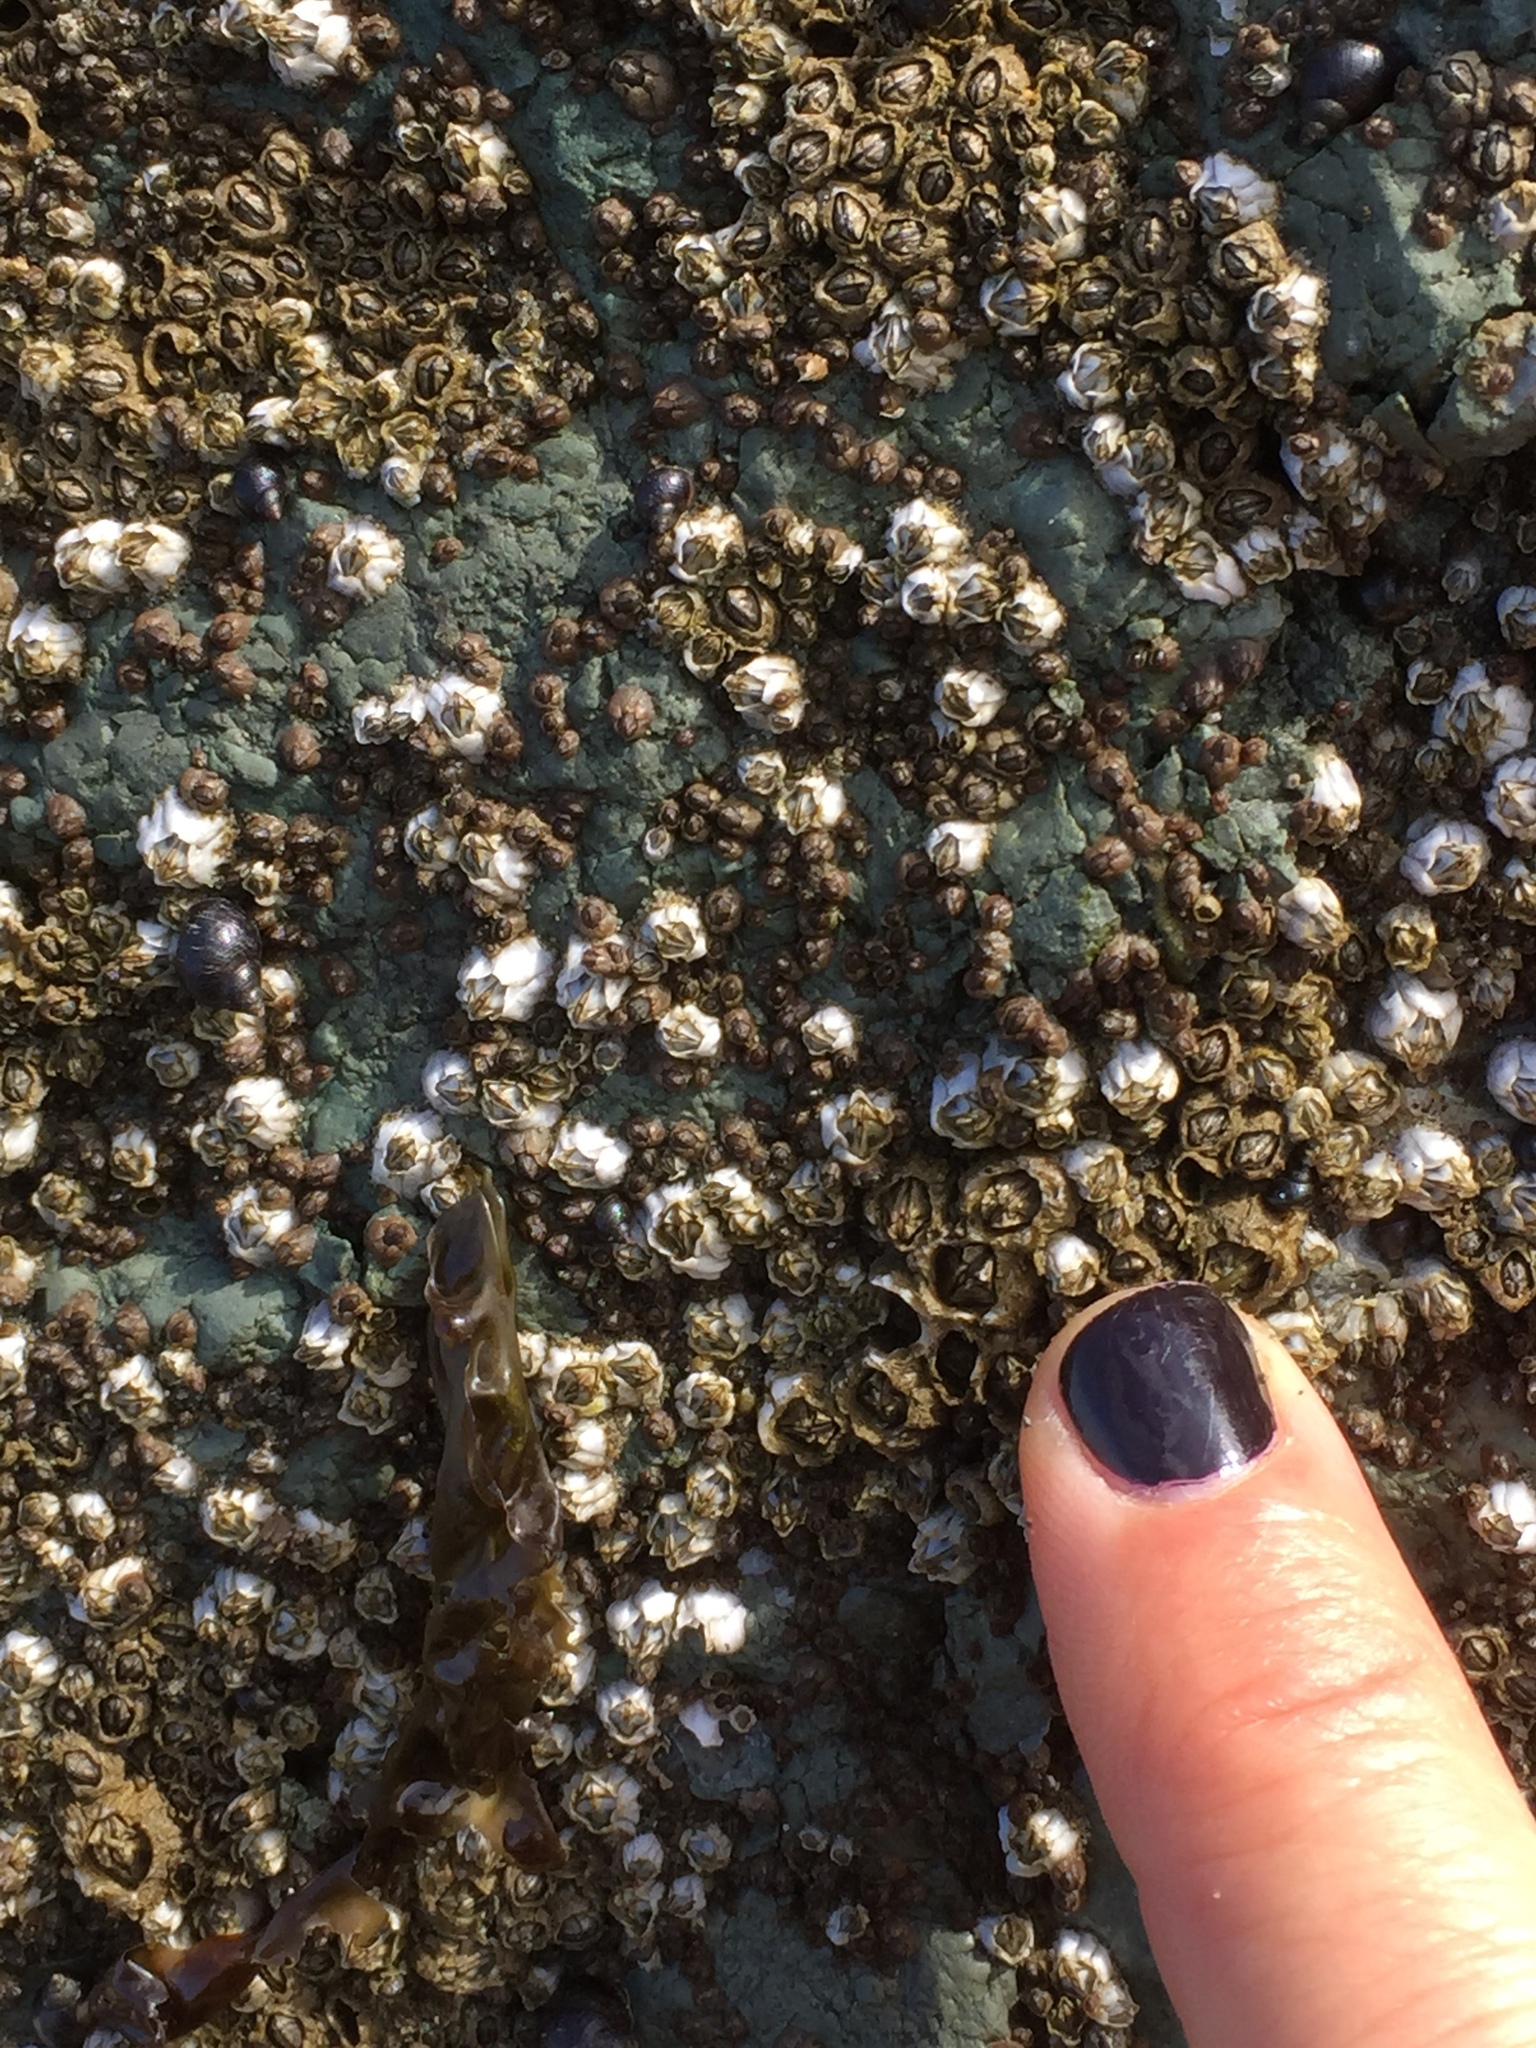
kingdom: Animalia
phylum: Arthropoda
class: Maxillopoda
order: Sessilia
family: Balanidae
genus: Balanus
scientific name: Balanus glandula
